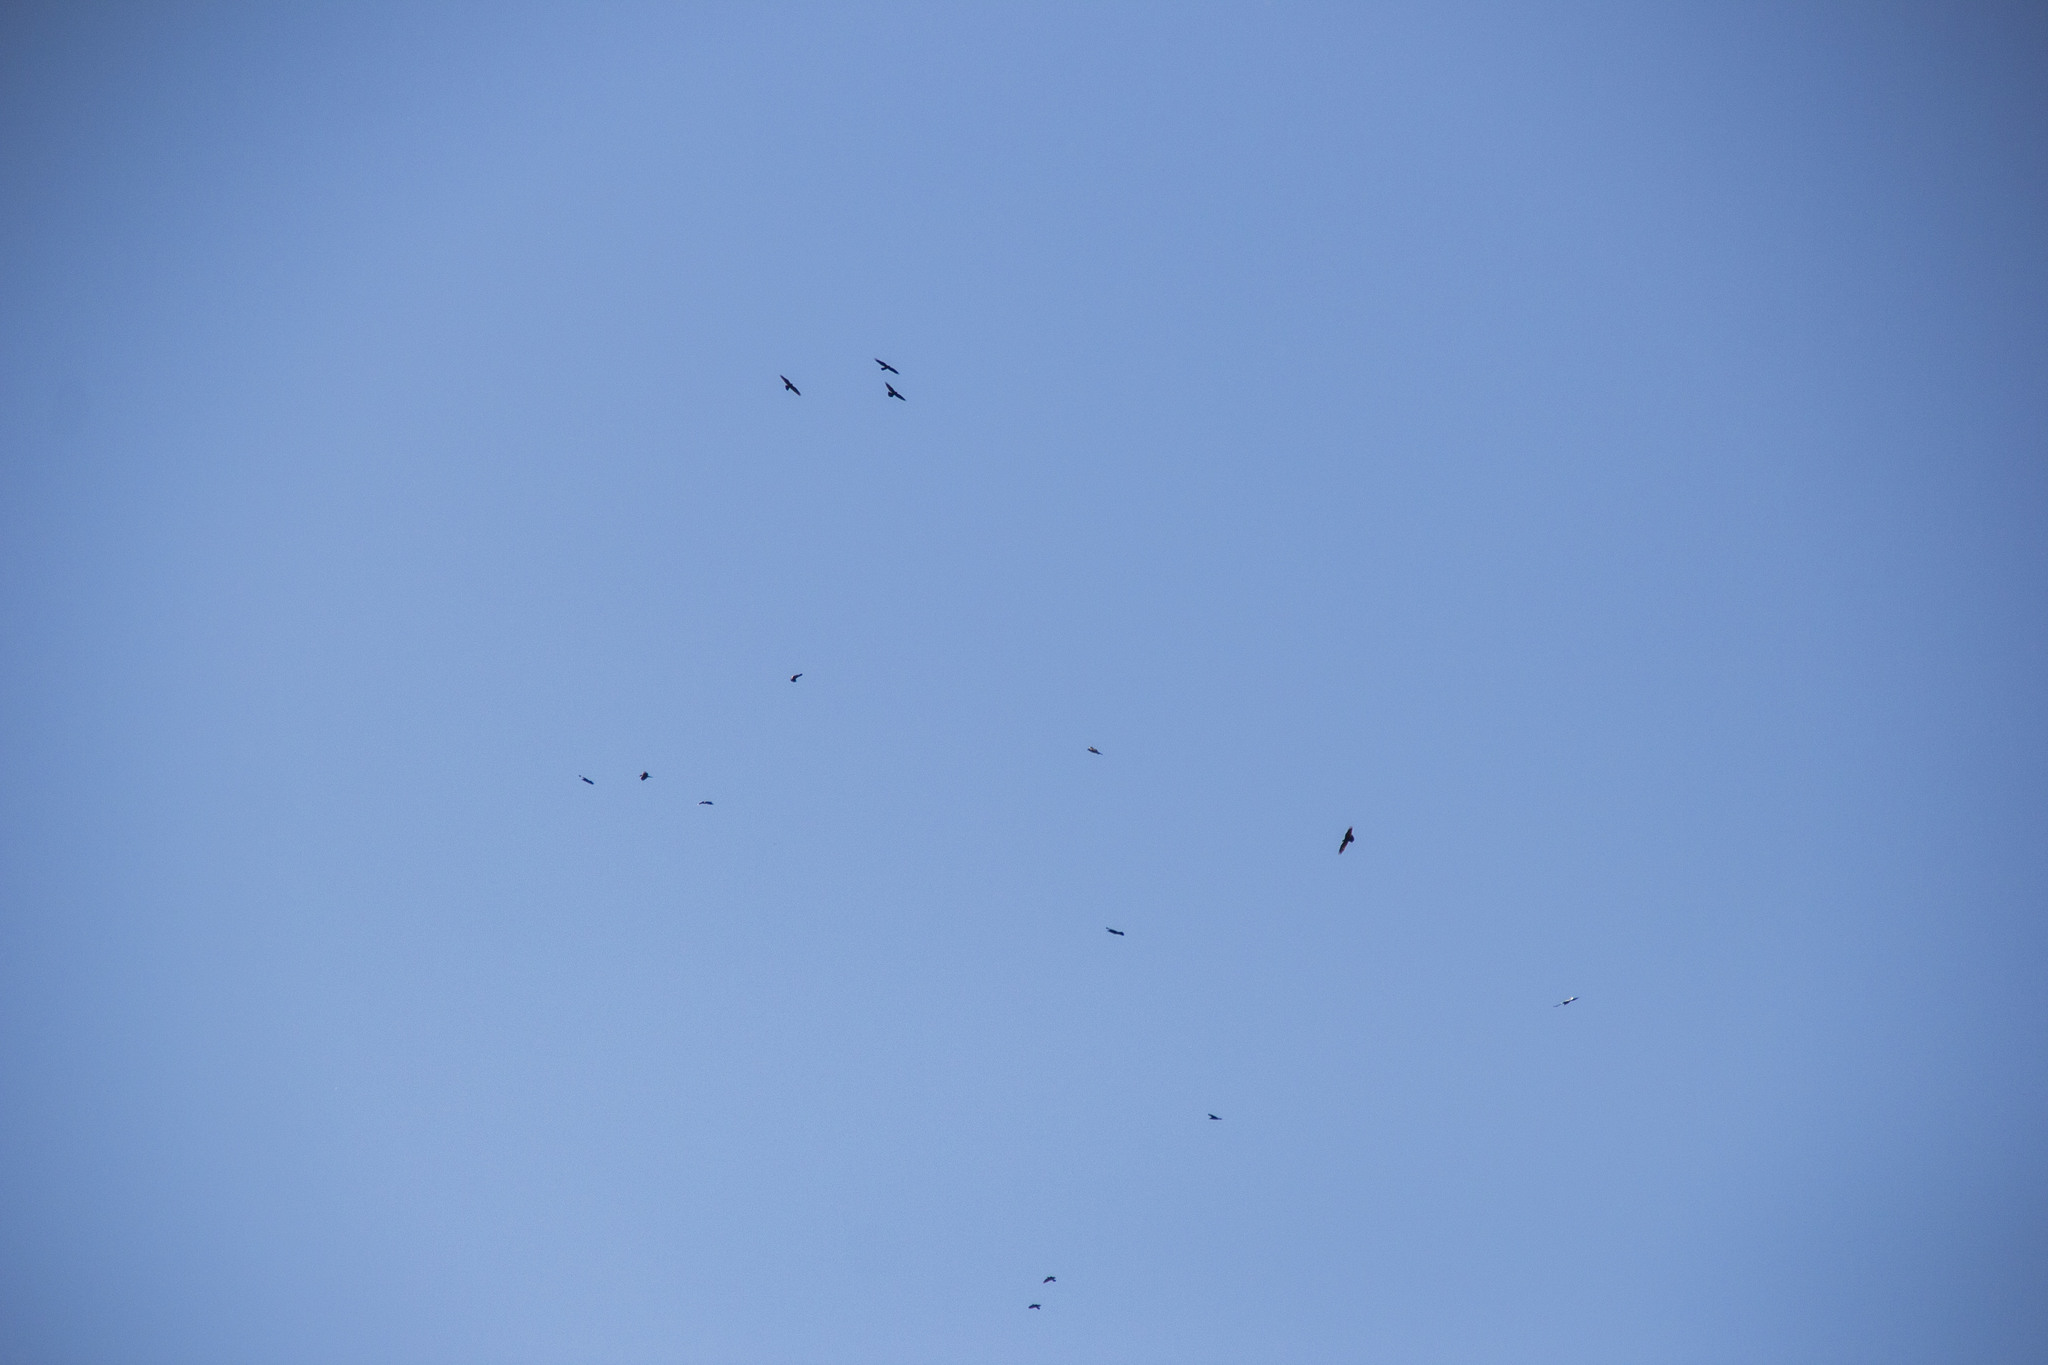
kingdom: Animalia
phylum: Chordata
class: Aves
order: Passeriformes
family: Corvidae
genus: Corvus
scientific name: Corvus corax
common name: Common raven
